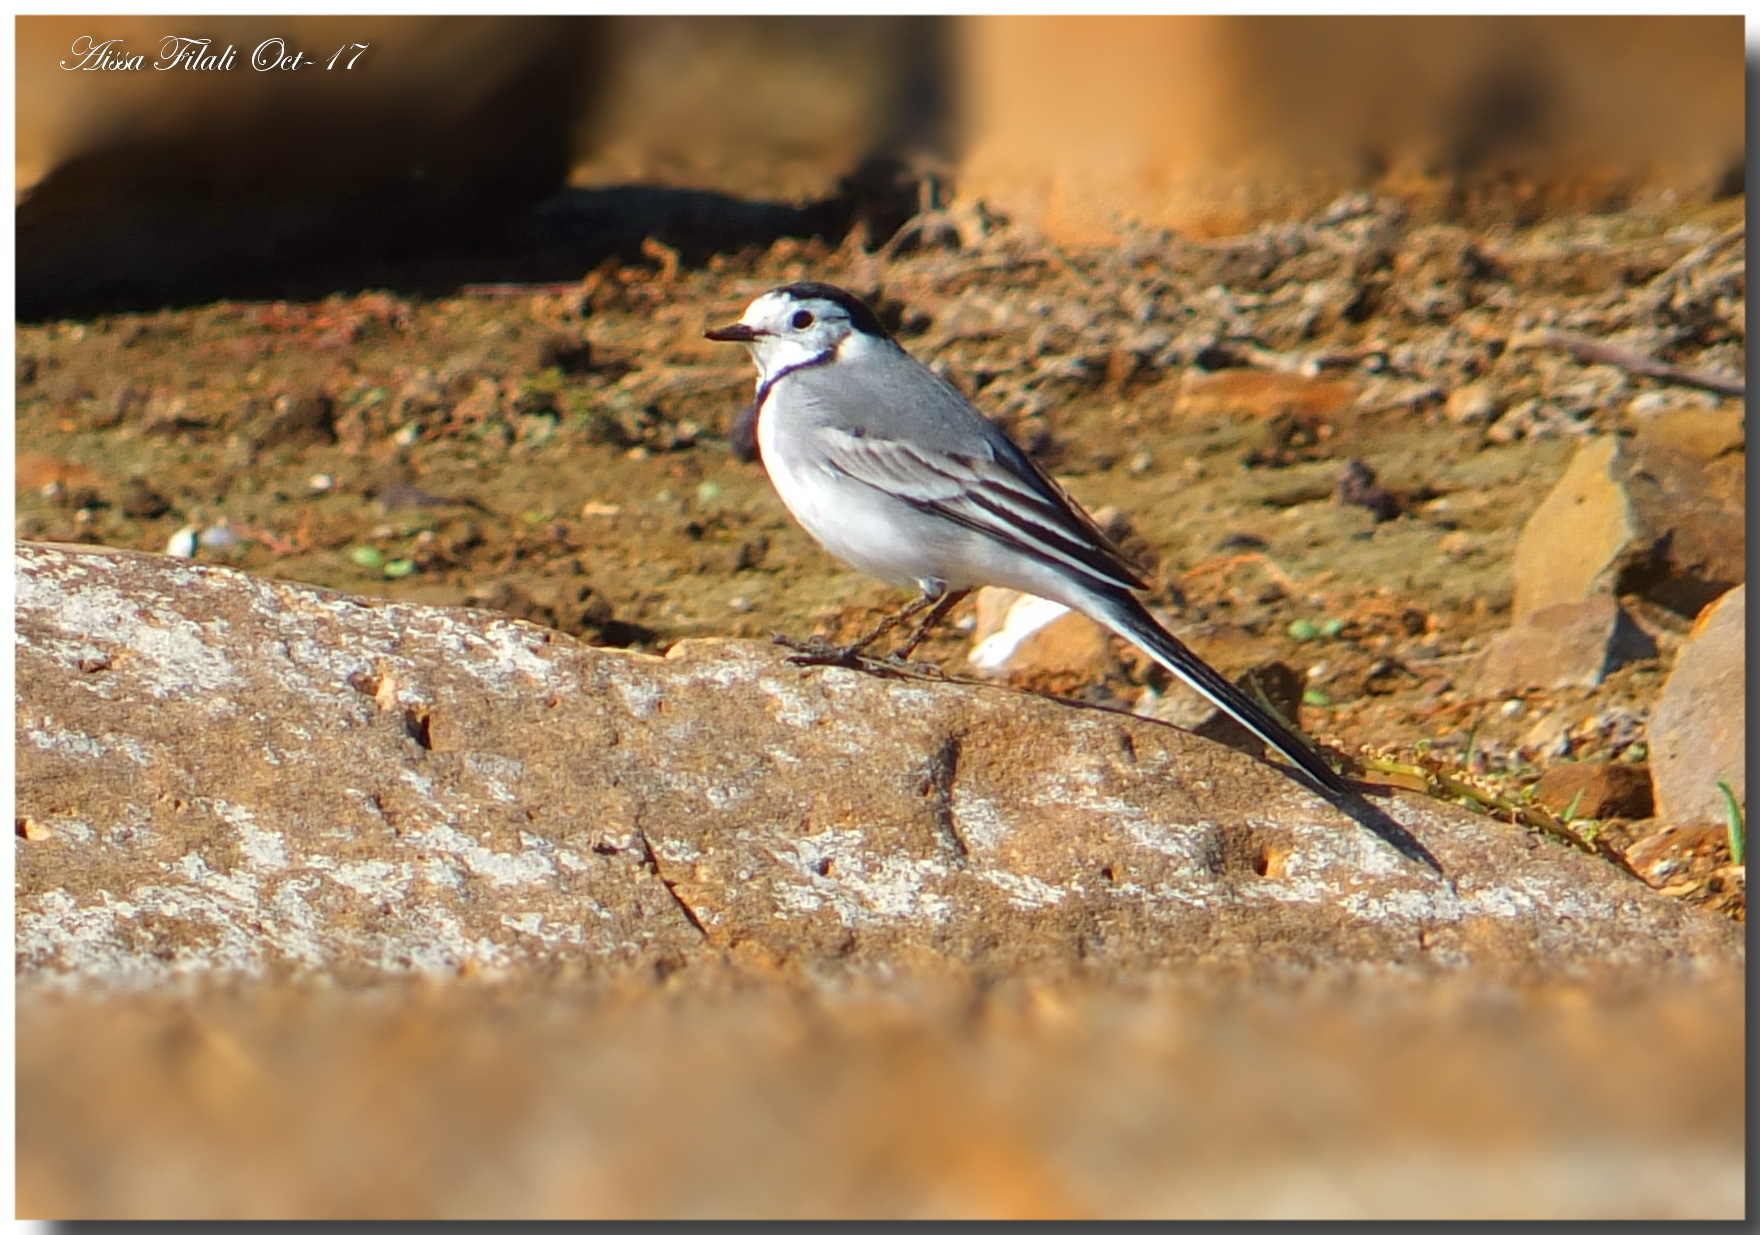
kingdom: Animalia
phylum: Chordata
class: Aves
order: Passeriformes
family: Motacillidae
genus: Motacilla
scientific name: Motacilla alba
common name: White wagtail
